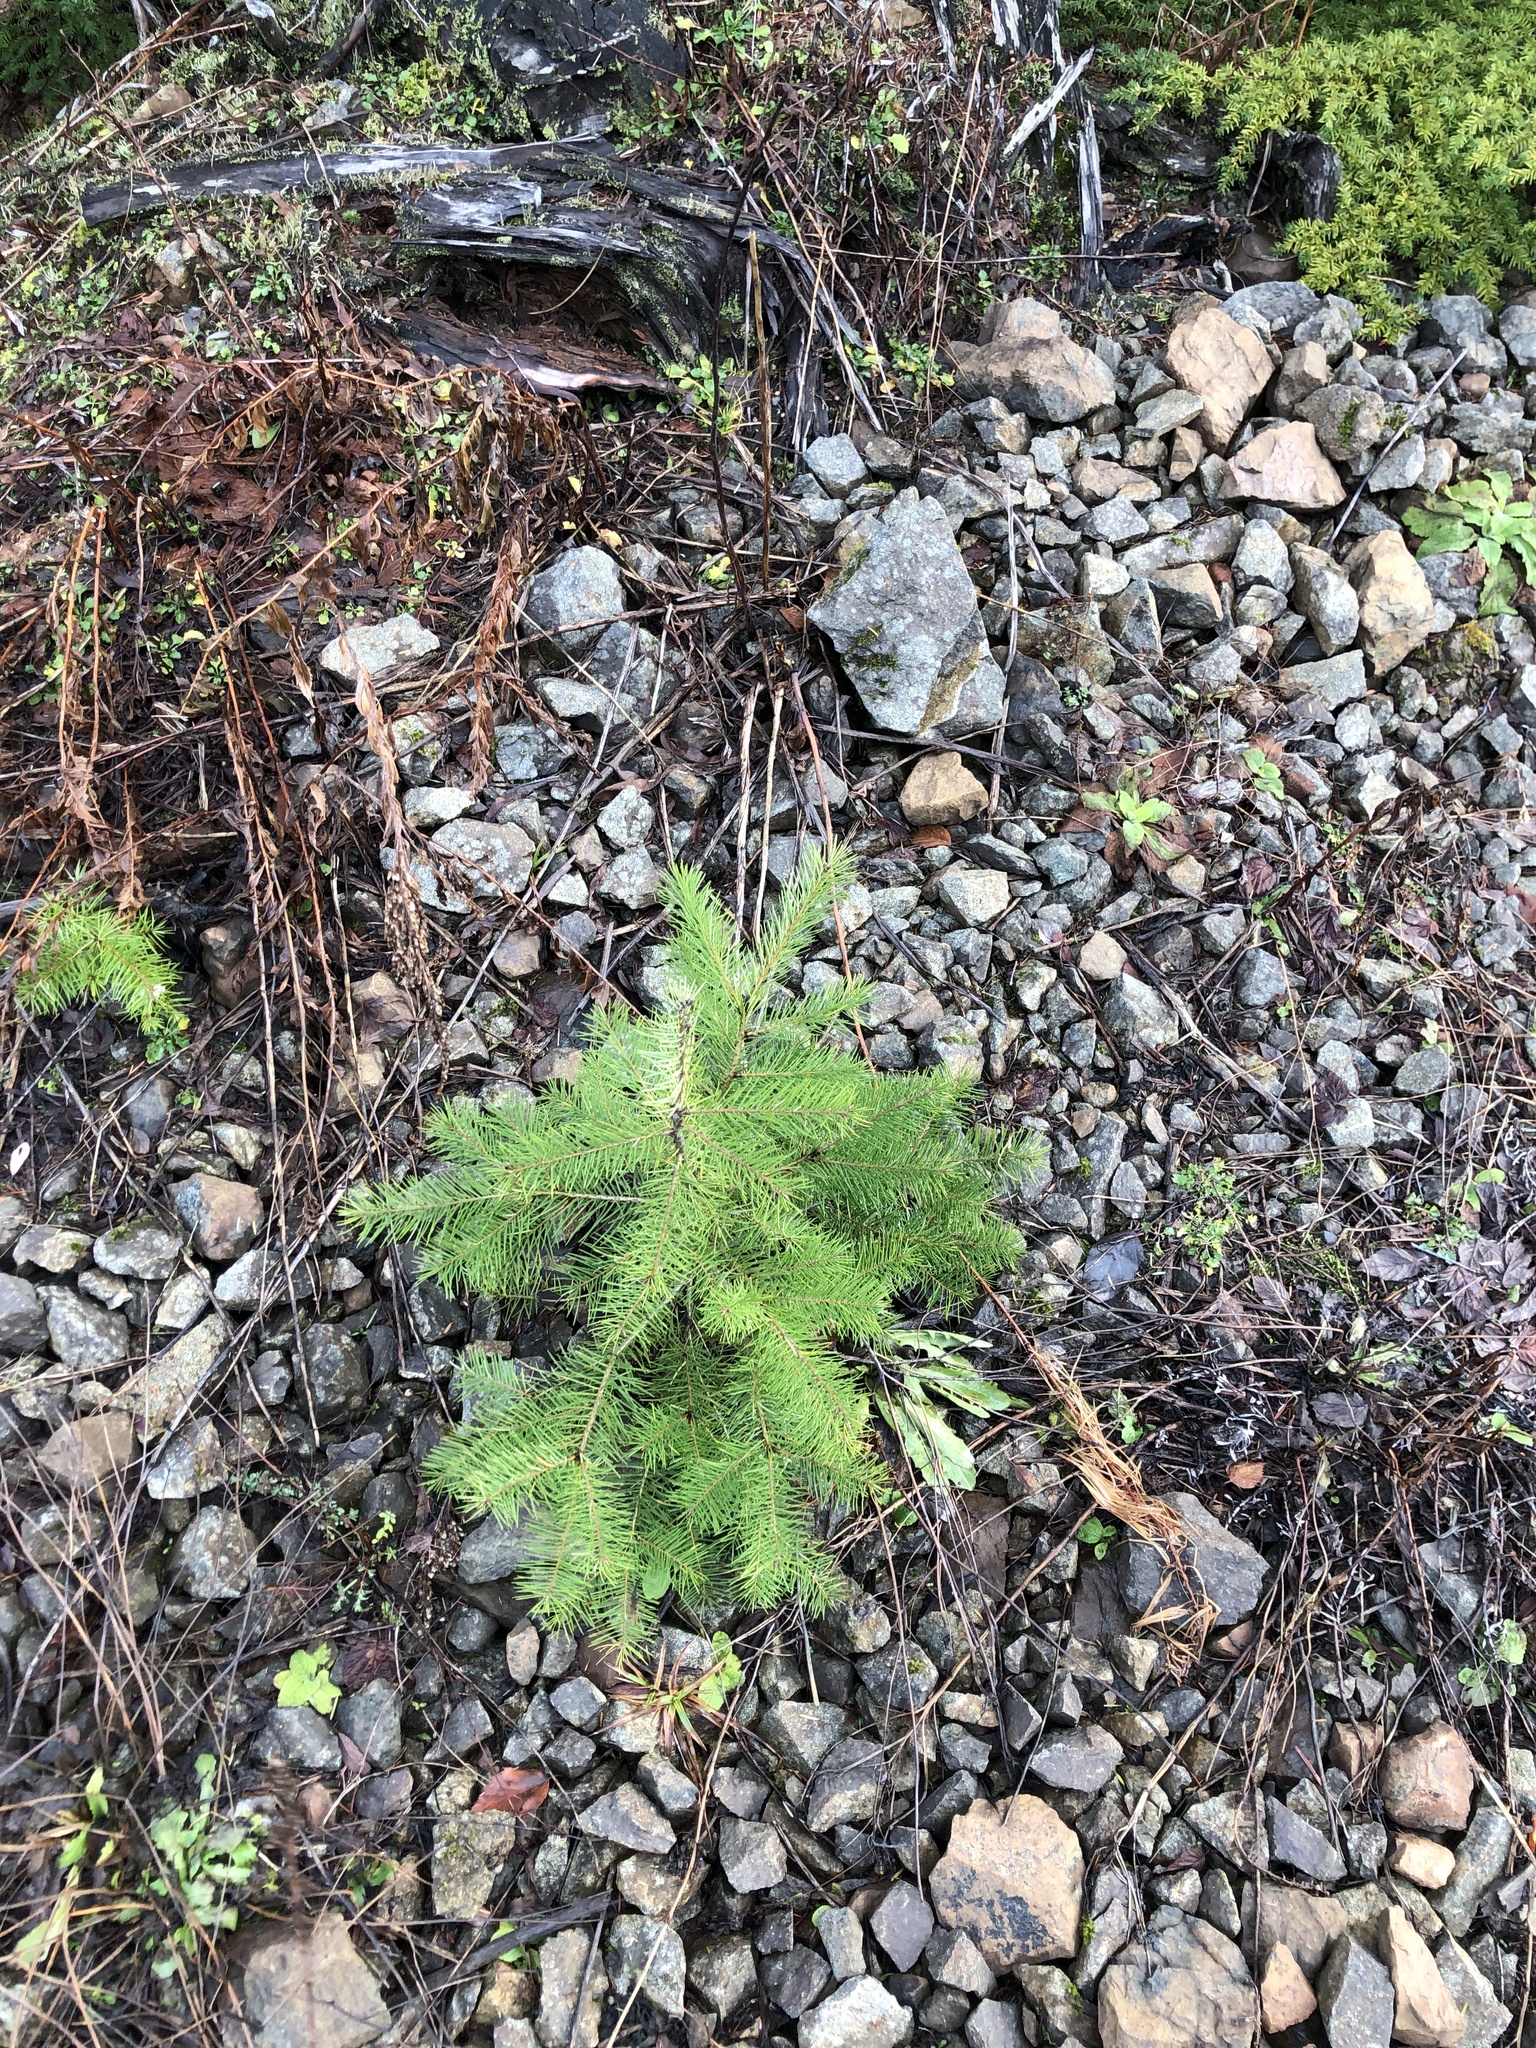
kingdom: Plantae
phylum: Tracheophyta
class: Pinopsida
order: Pinales
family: Pinaceae
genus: Pseudotsuga
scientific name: Pseudotsuga menziesii
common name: Douglas fir
